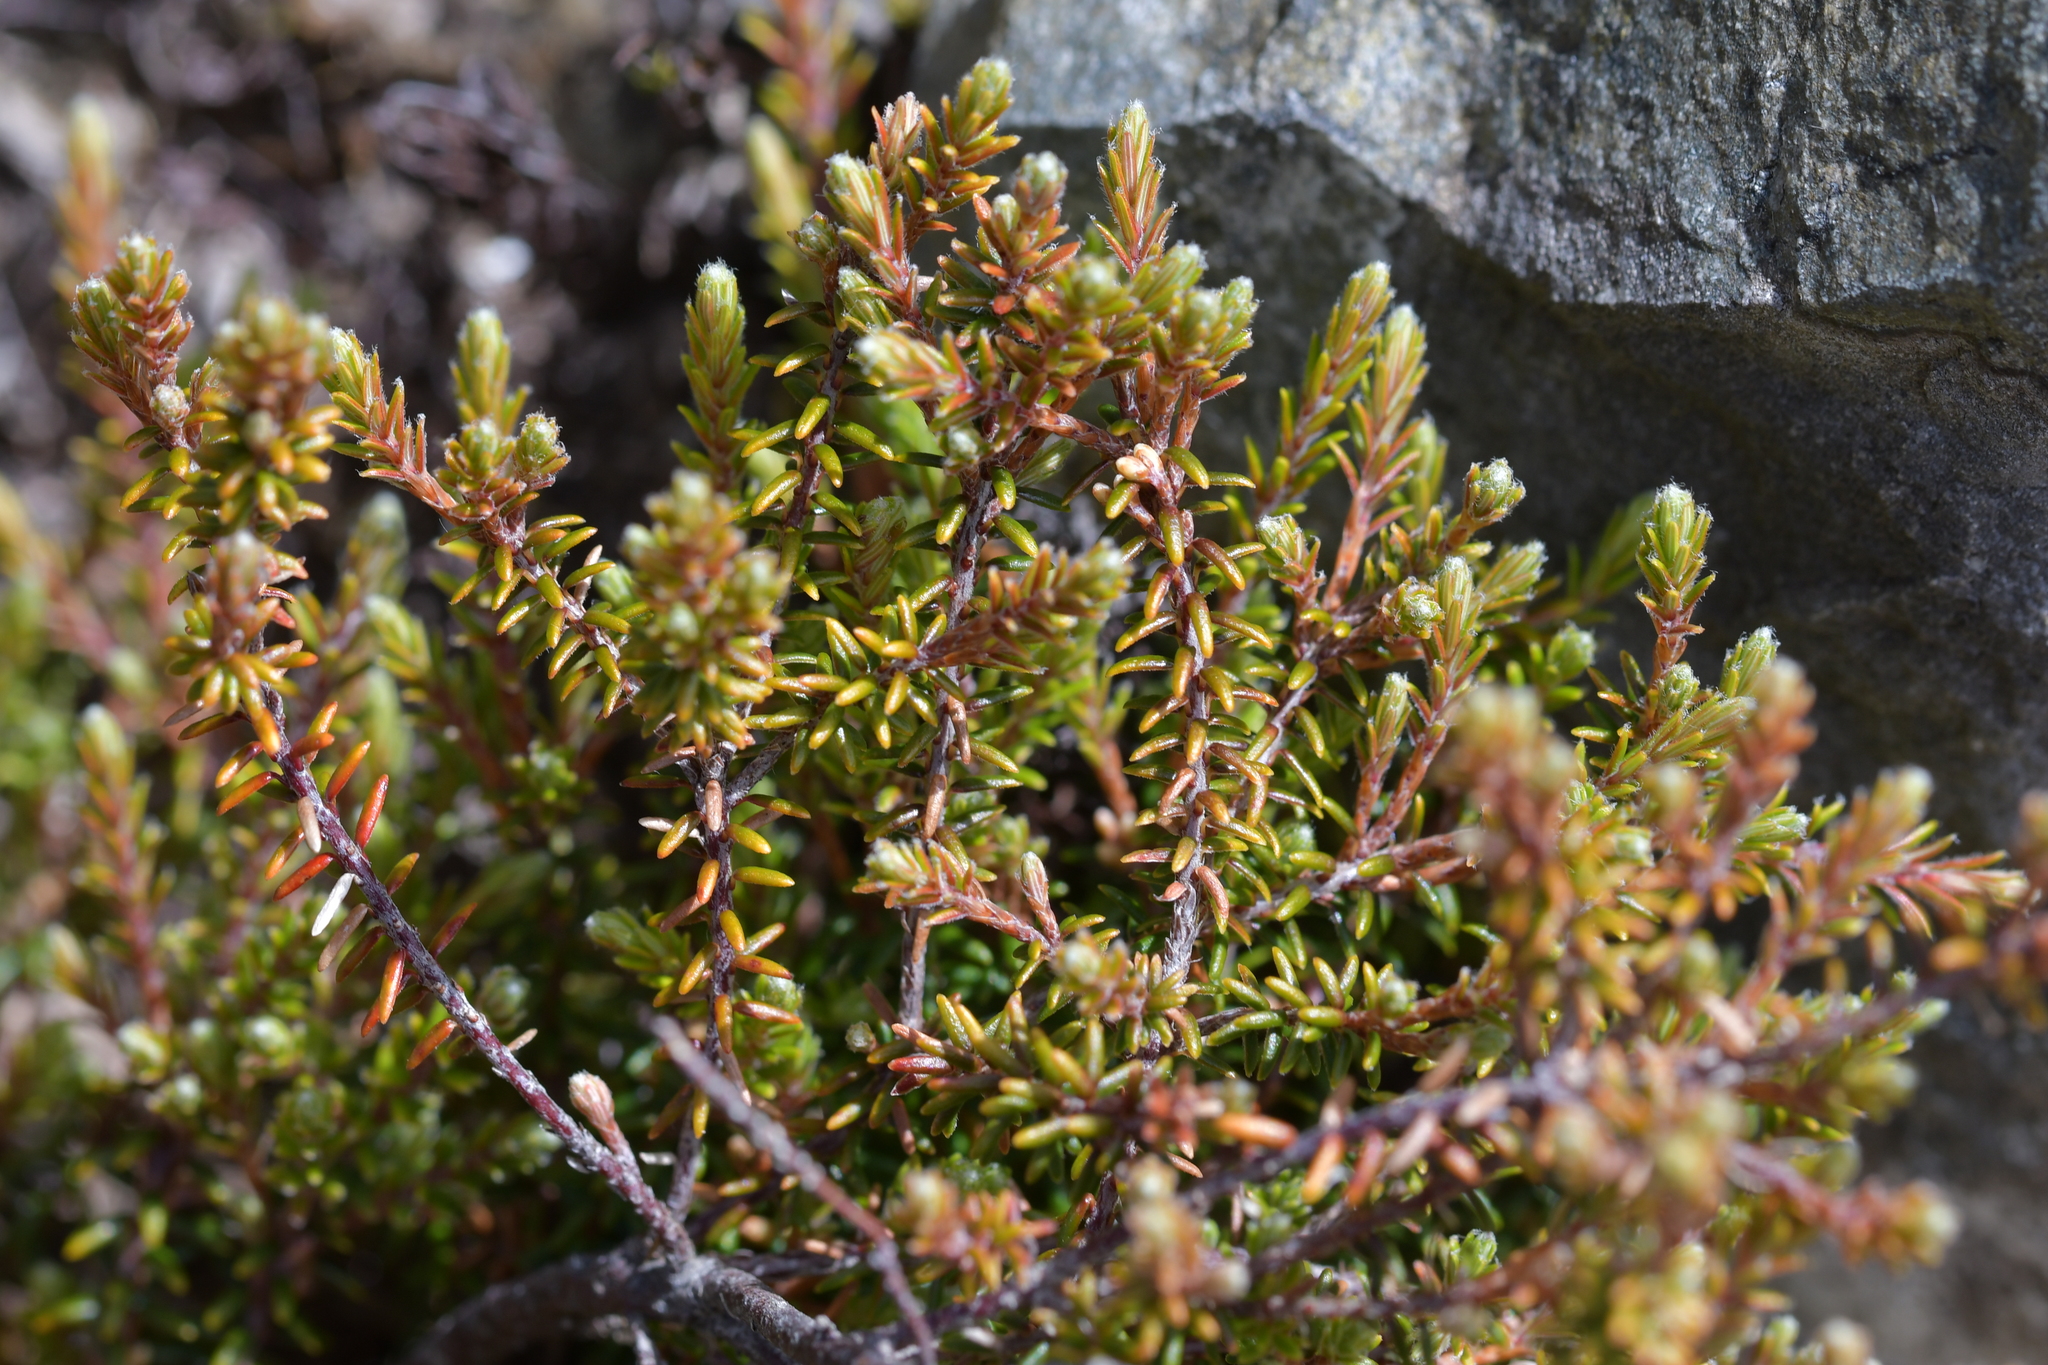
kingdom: Plantae
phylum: Tracheophyta
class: Magnoliopsida
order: Ericales
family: Ericaceae
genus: Androstoma
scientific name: Androstoma empetrifolia
